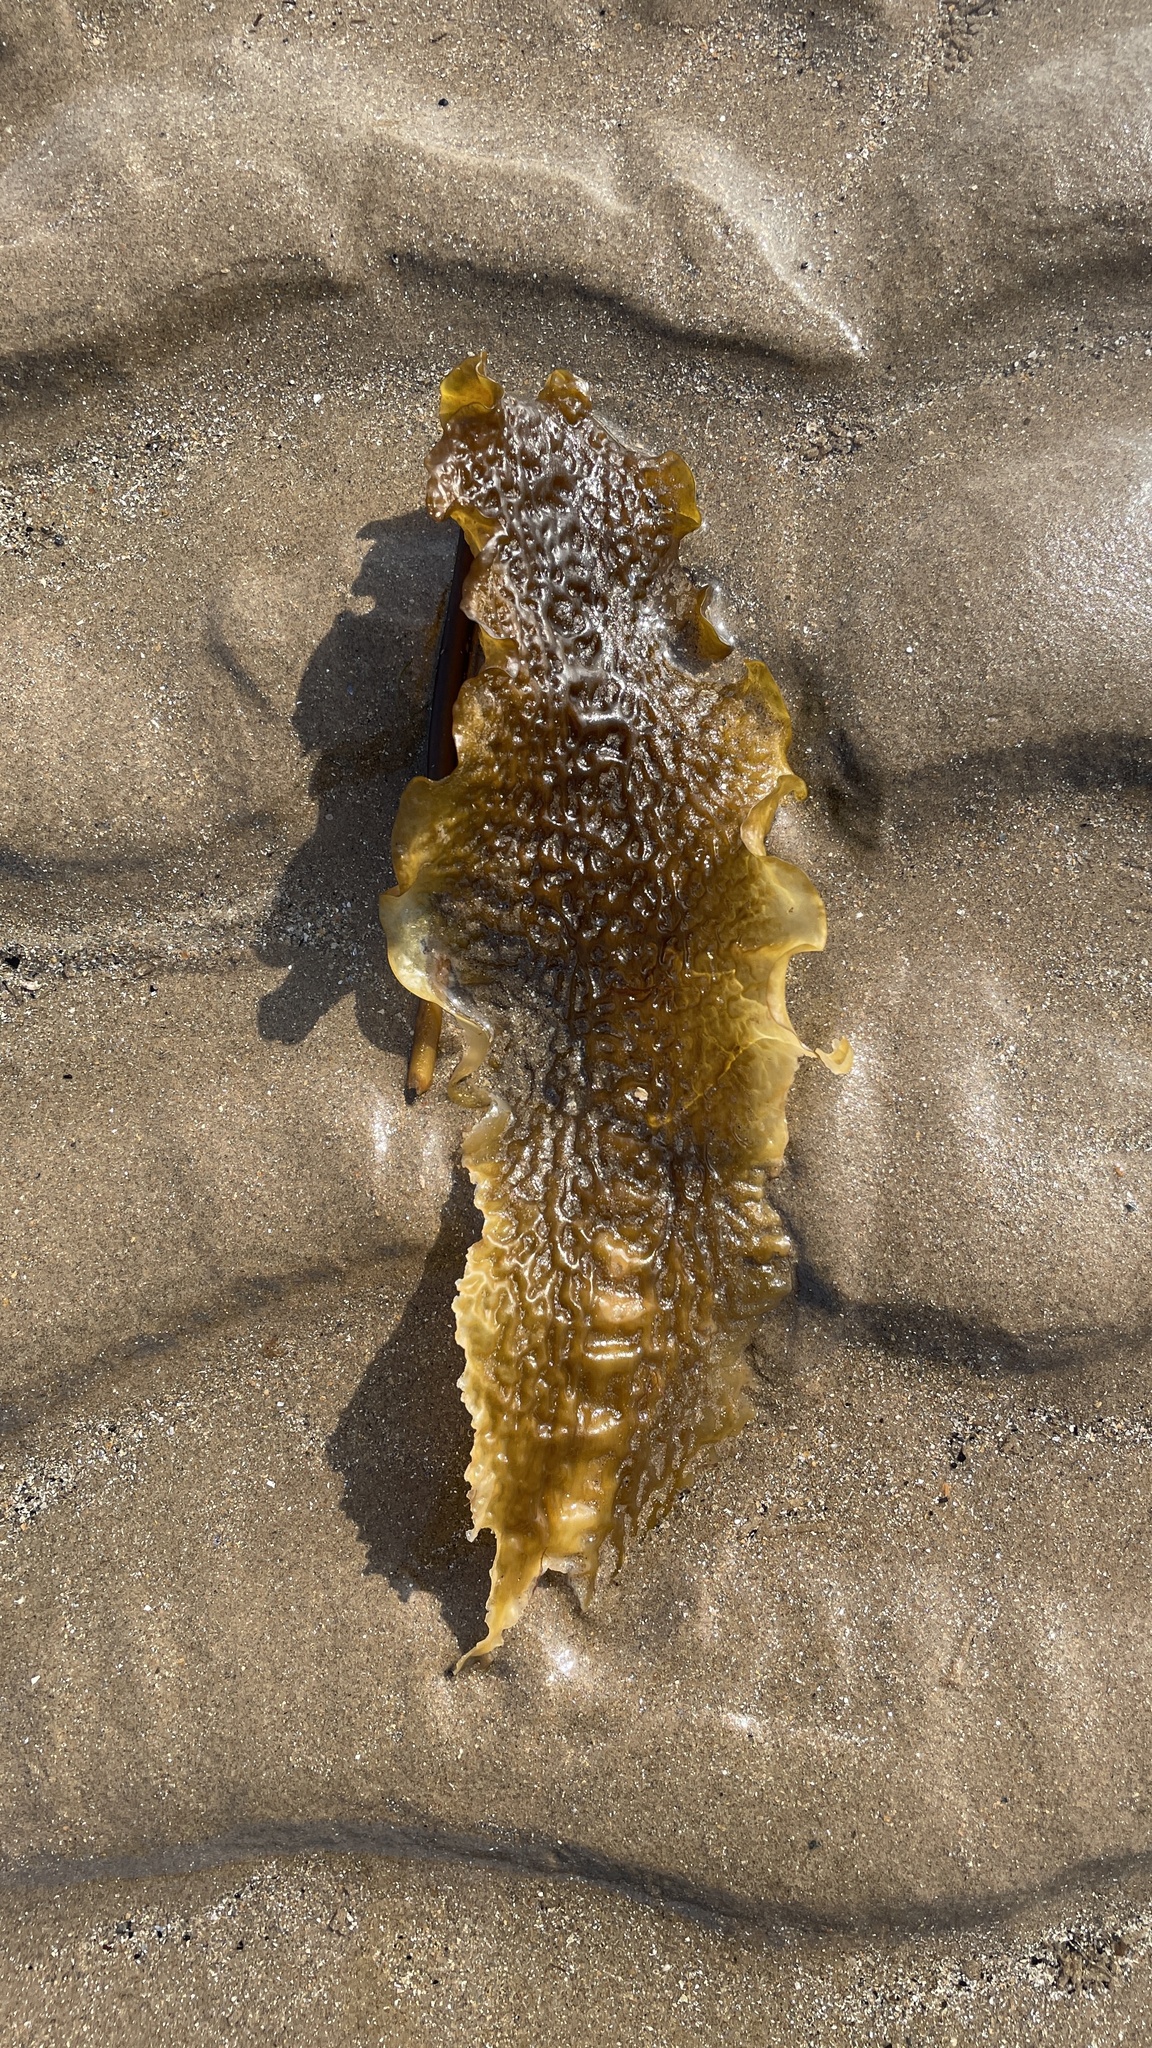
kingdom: Chromista
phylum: Ochrophyta
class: Phaeophyceae
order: Laminariales
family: Laminariaceae
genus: Saccharina
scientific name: Saccharina latissima
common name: Poor man's weather glass
